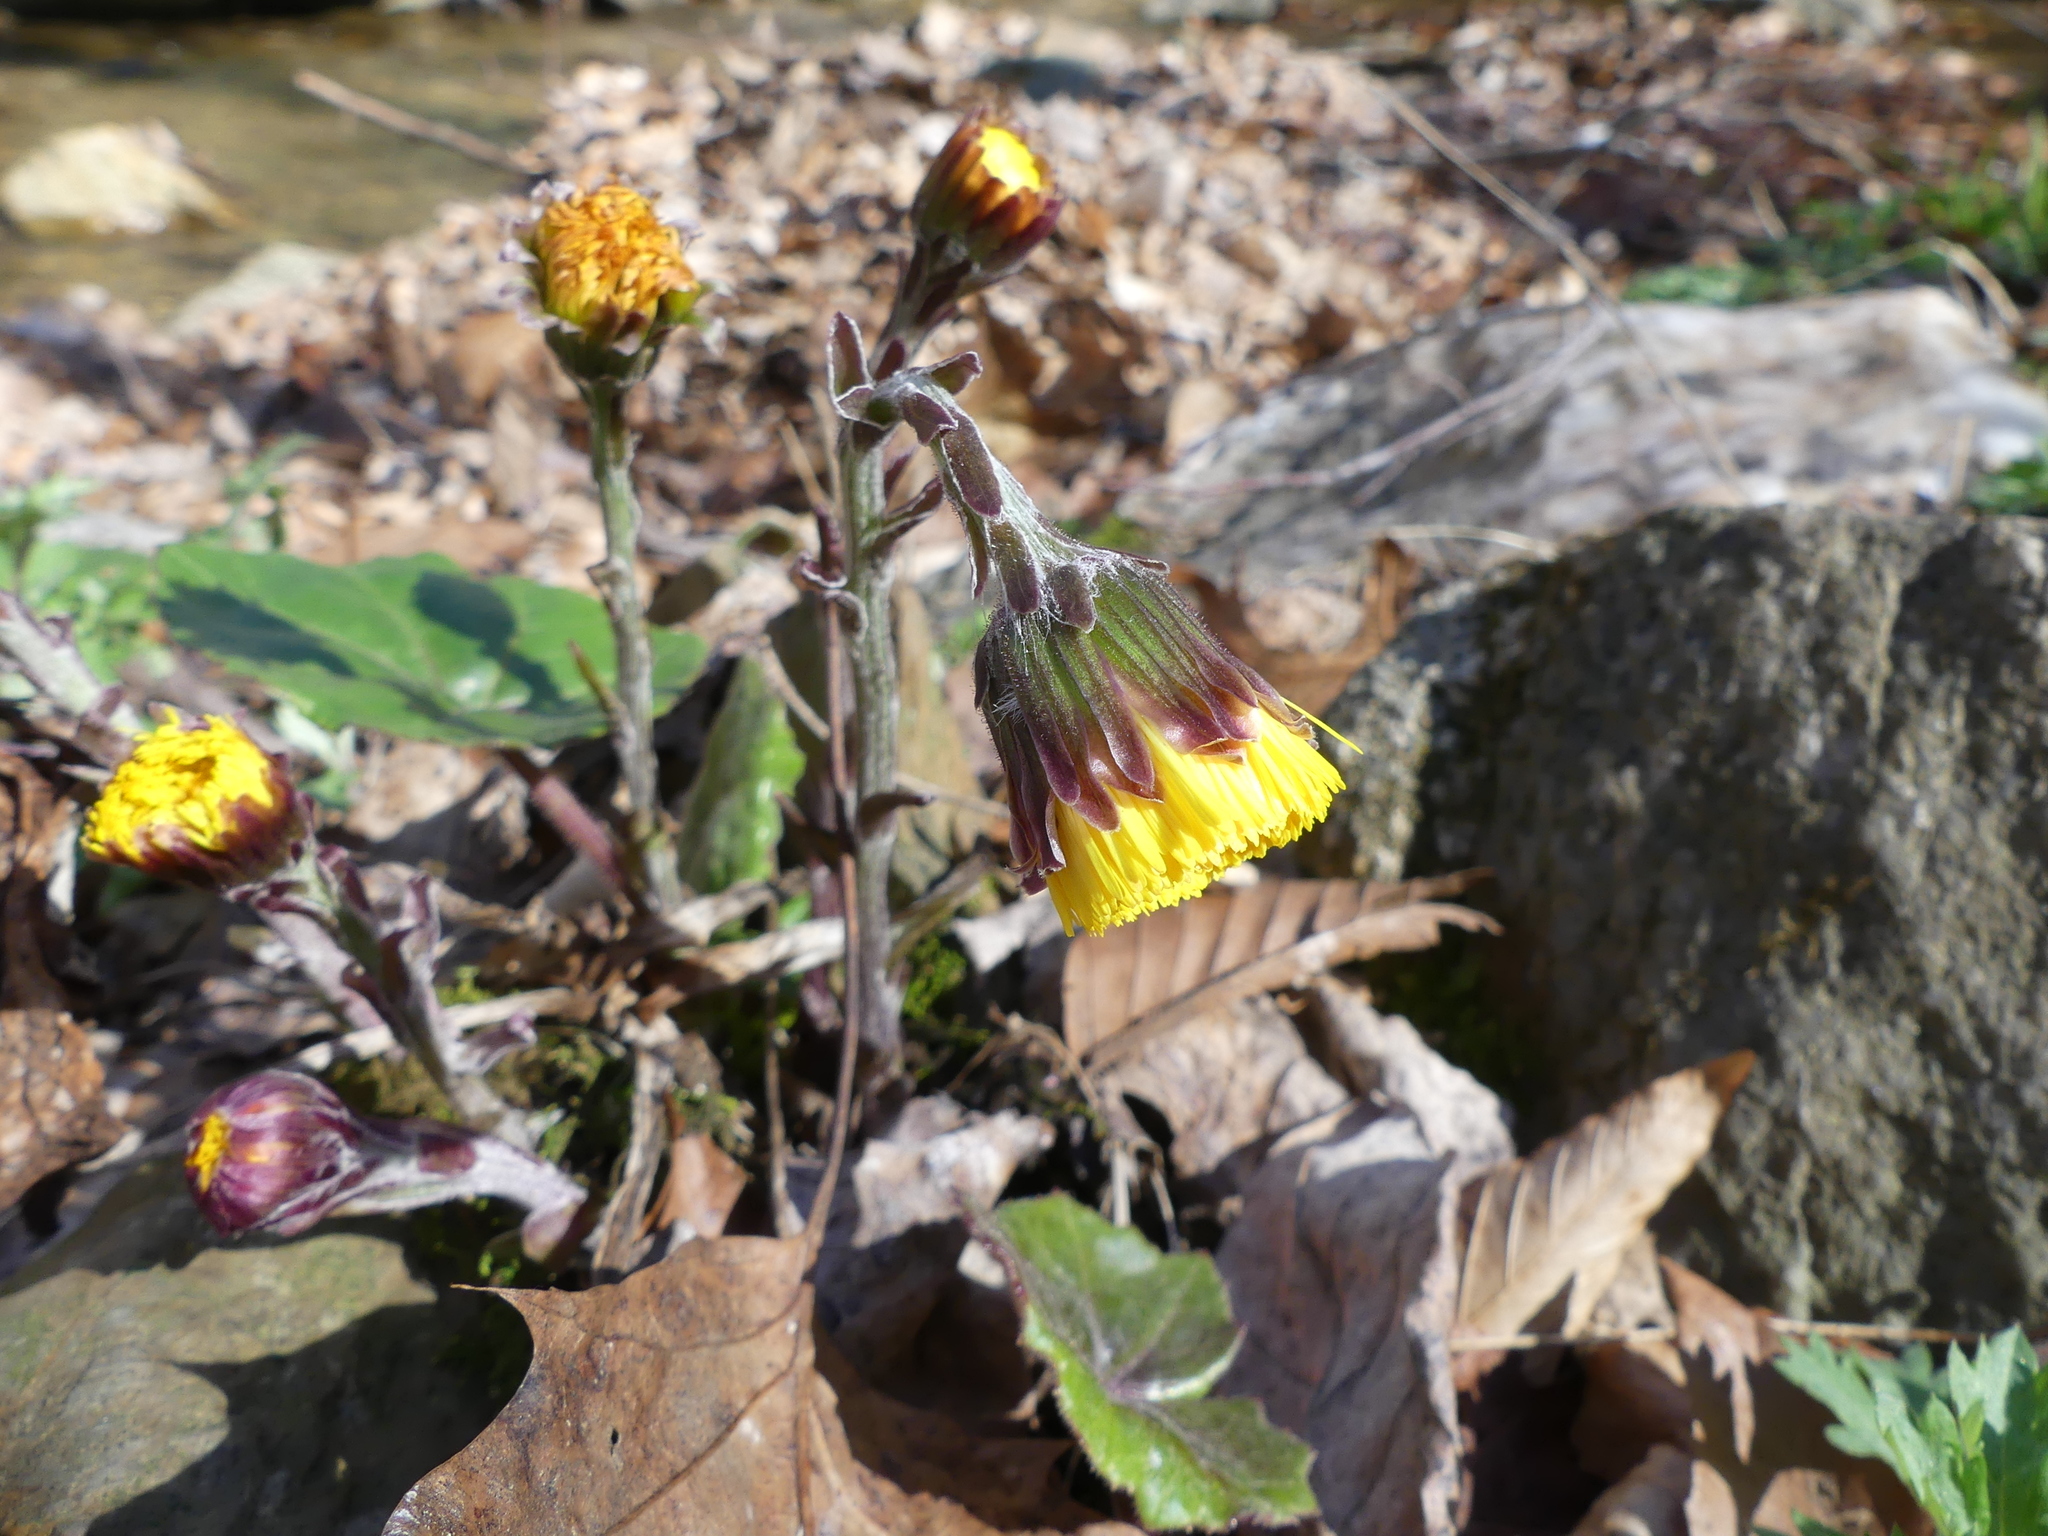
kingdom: Plantae
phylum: Tracheophyta
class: Magnoliopsida
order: Asterales
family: Asteraceae
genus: Tussilago
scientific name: Tussilago farfara
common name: Coltsfoot
